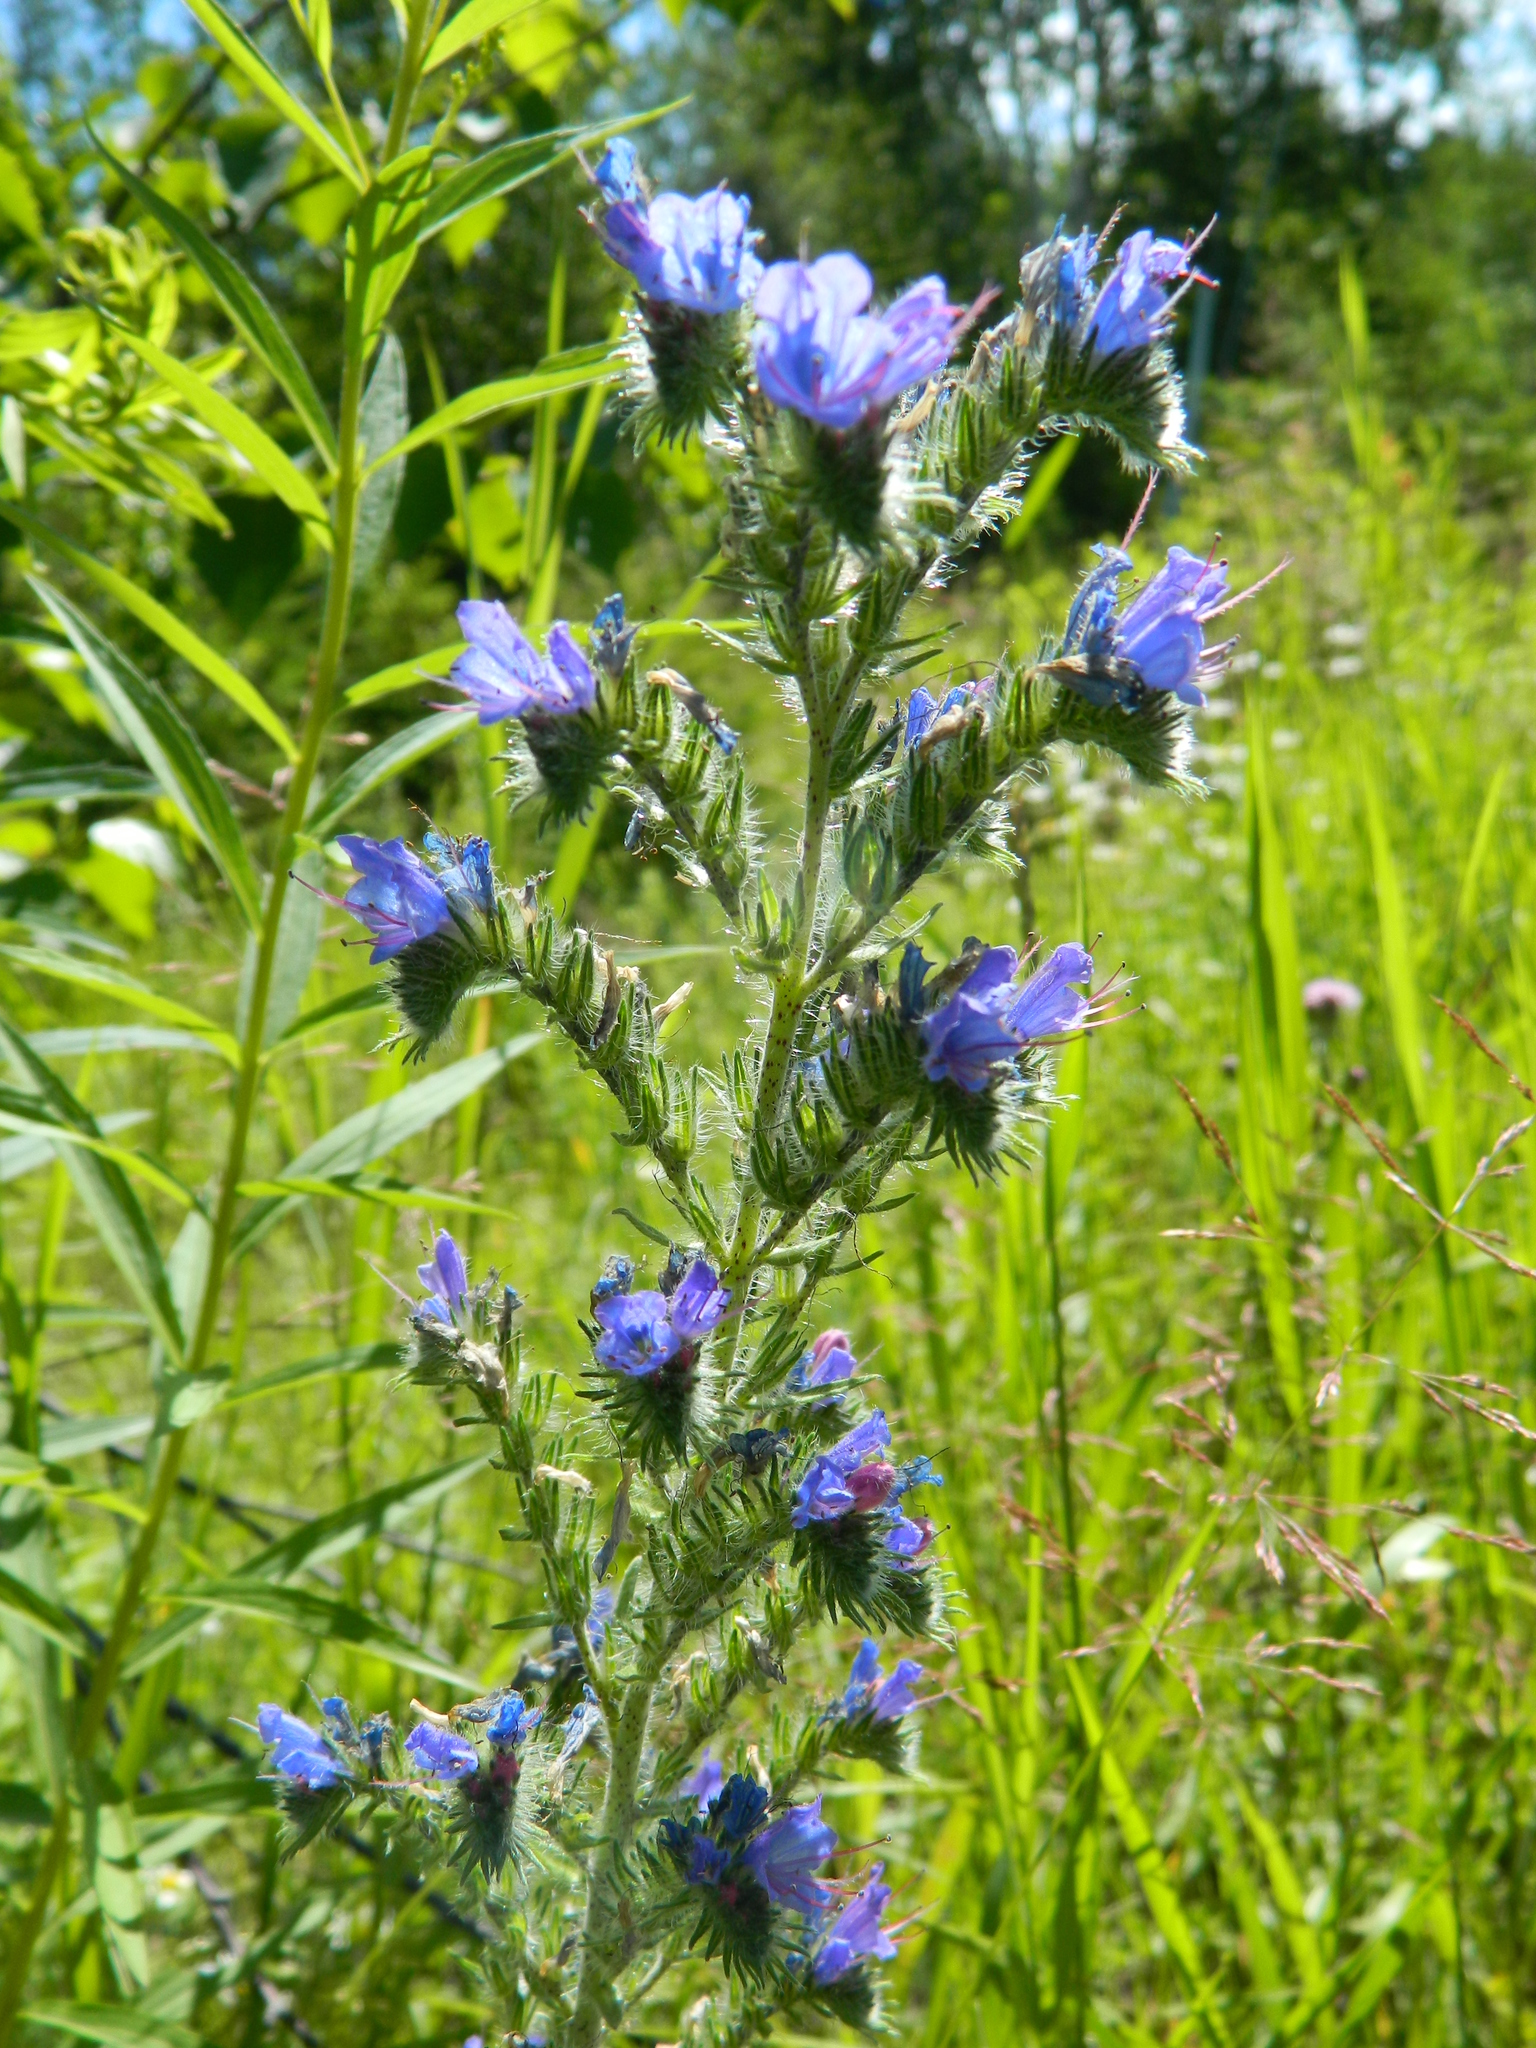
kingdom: Plantae
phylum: Tracheophyta
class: Magnoliopsida
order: Boraginales
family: Boraginaceae
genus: Echium
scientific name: Echium vulgare
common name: Common viper's bugloss
